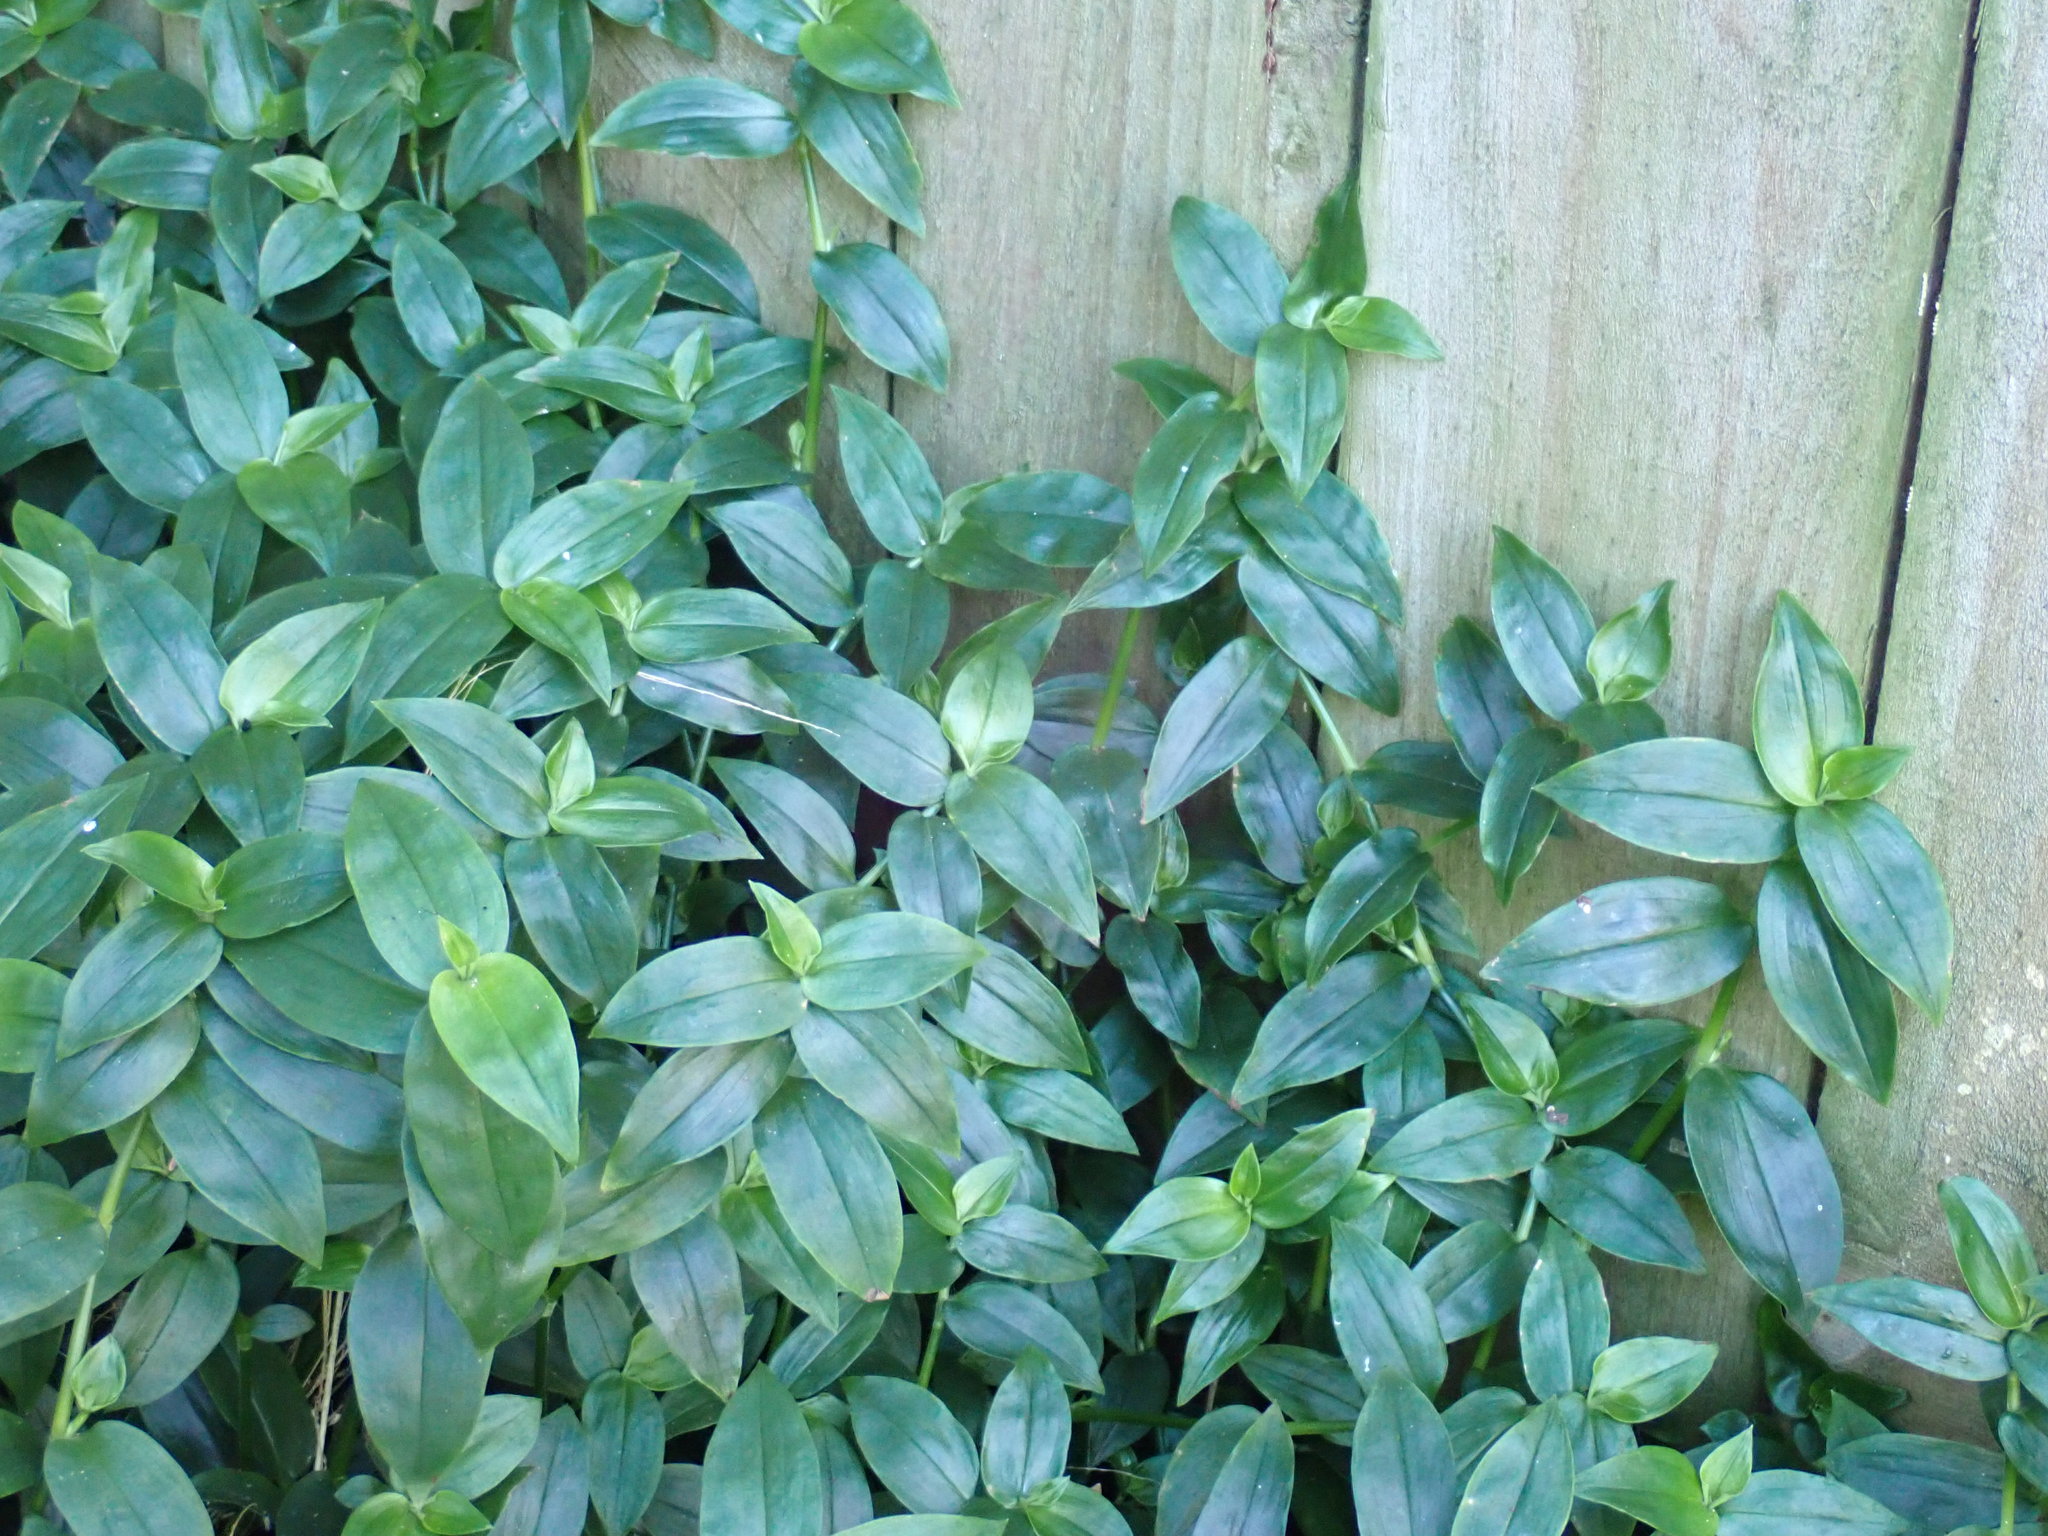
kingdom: Plantae
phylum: Tracheophyta
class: Liliopsida
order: Commelinales
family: Commelinaceae
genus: Tradescantia
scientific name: Tradescantia fluminensis
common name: Wandering-jew
